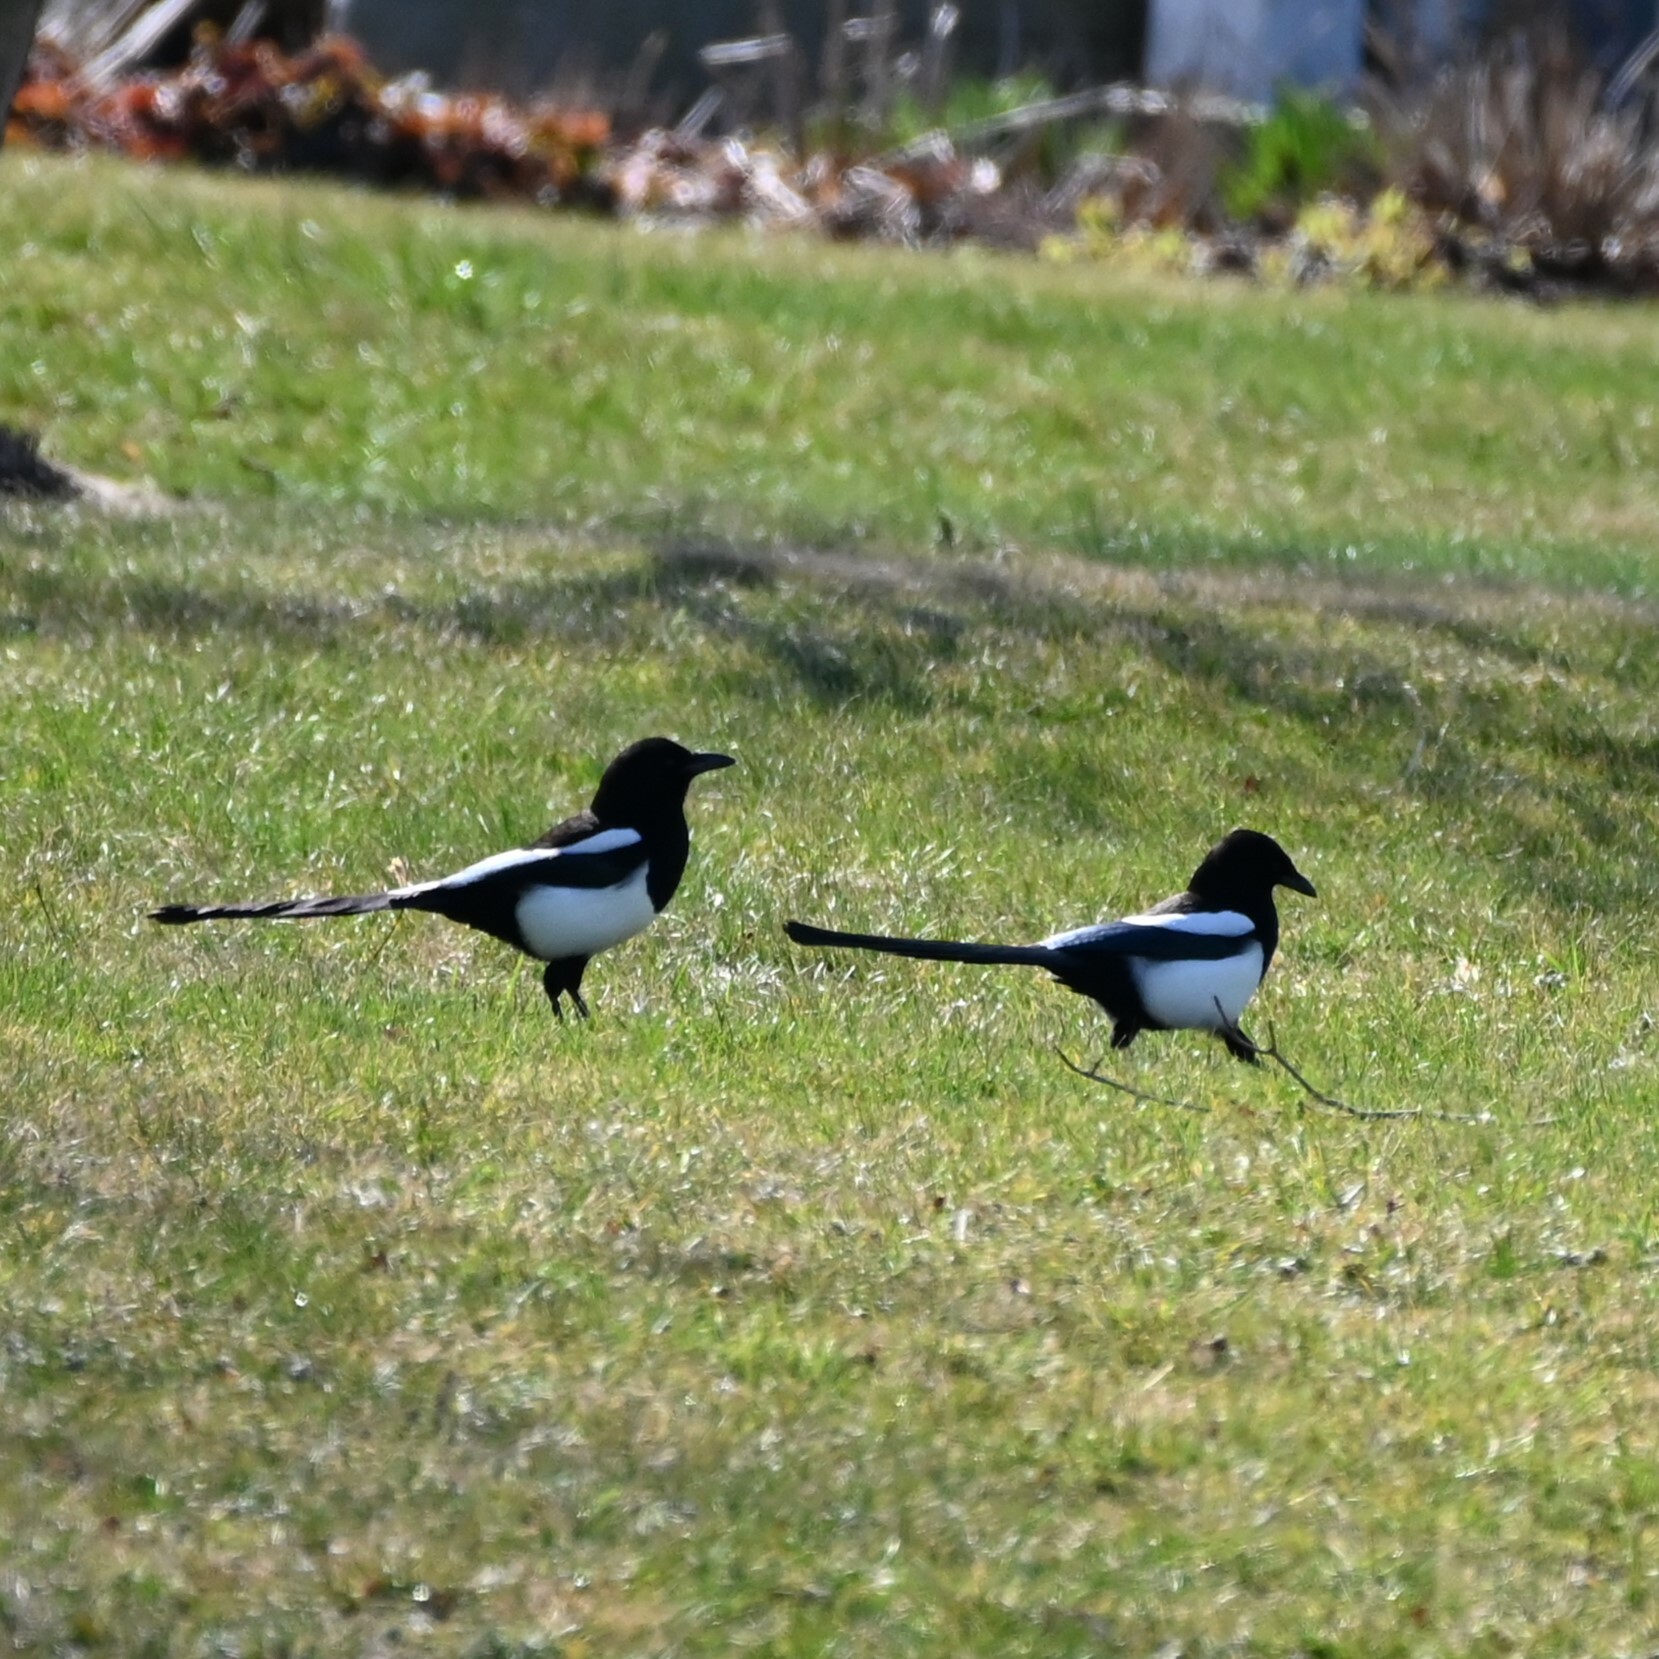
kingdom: Animalia
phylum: Chordata
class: Aves
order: Passeriformes
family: Corvidae
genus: Pica
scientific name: Pica hudsonia
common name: Black-billed magpie
